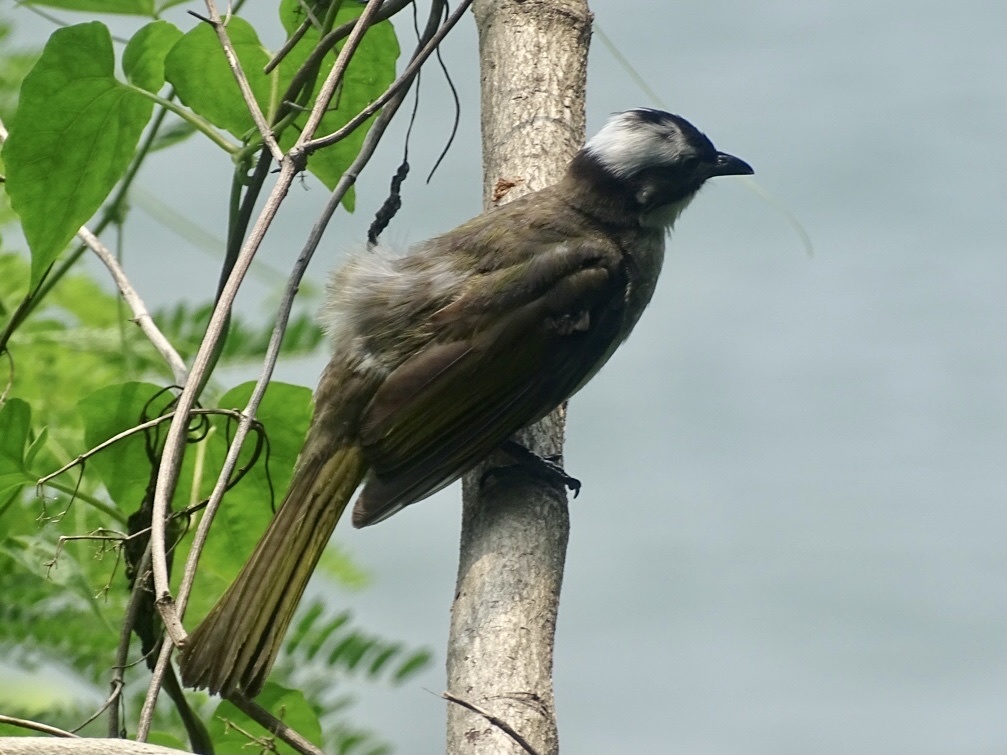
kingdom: Animalia
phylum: Chordata
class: Aves
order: Passeriformes
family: Pycnonotidae
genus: Pycnonotus
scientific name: Pycnonotus sinensis
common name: Light-vented bulbul
